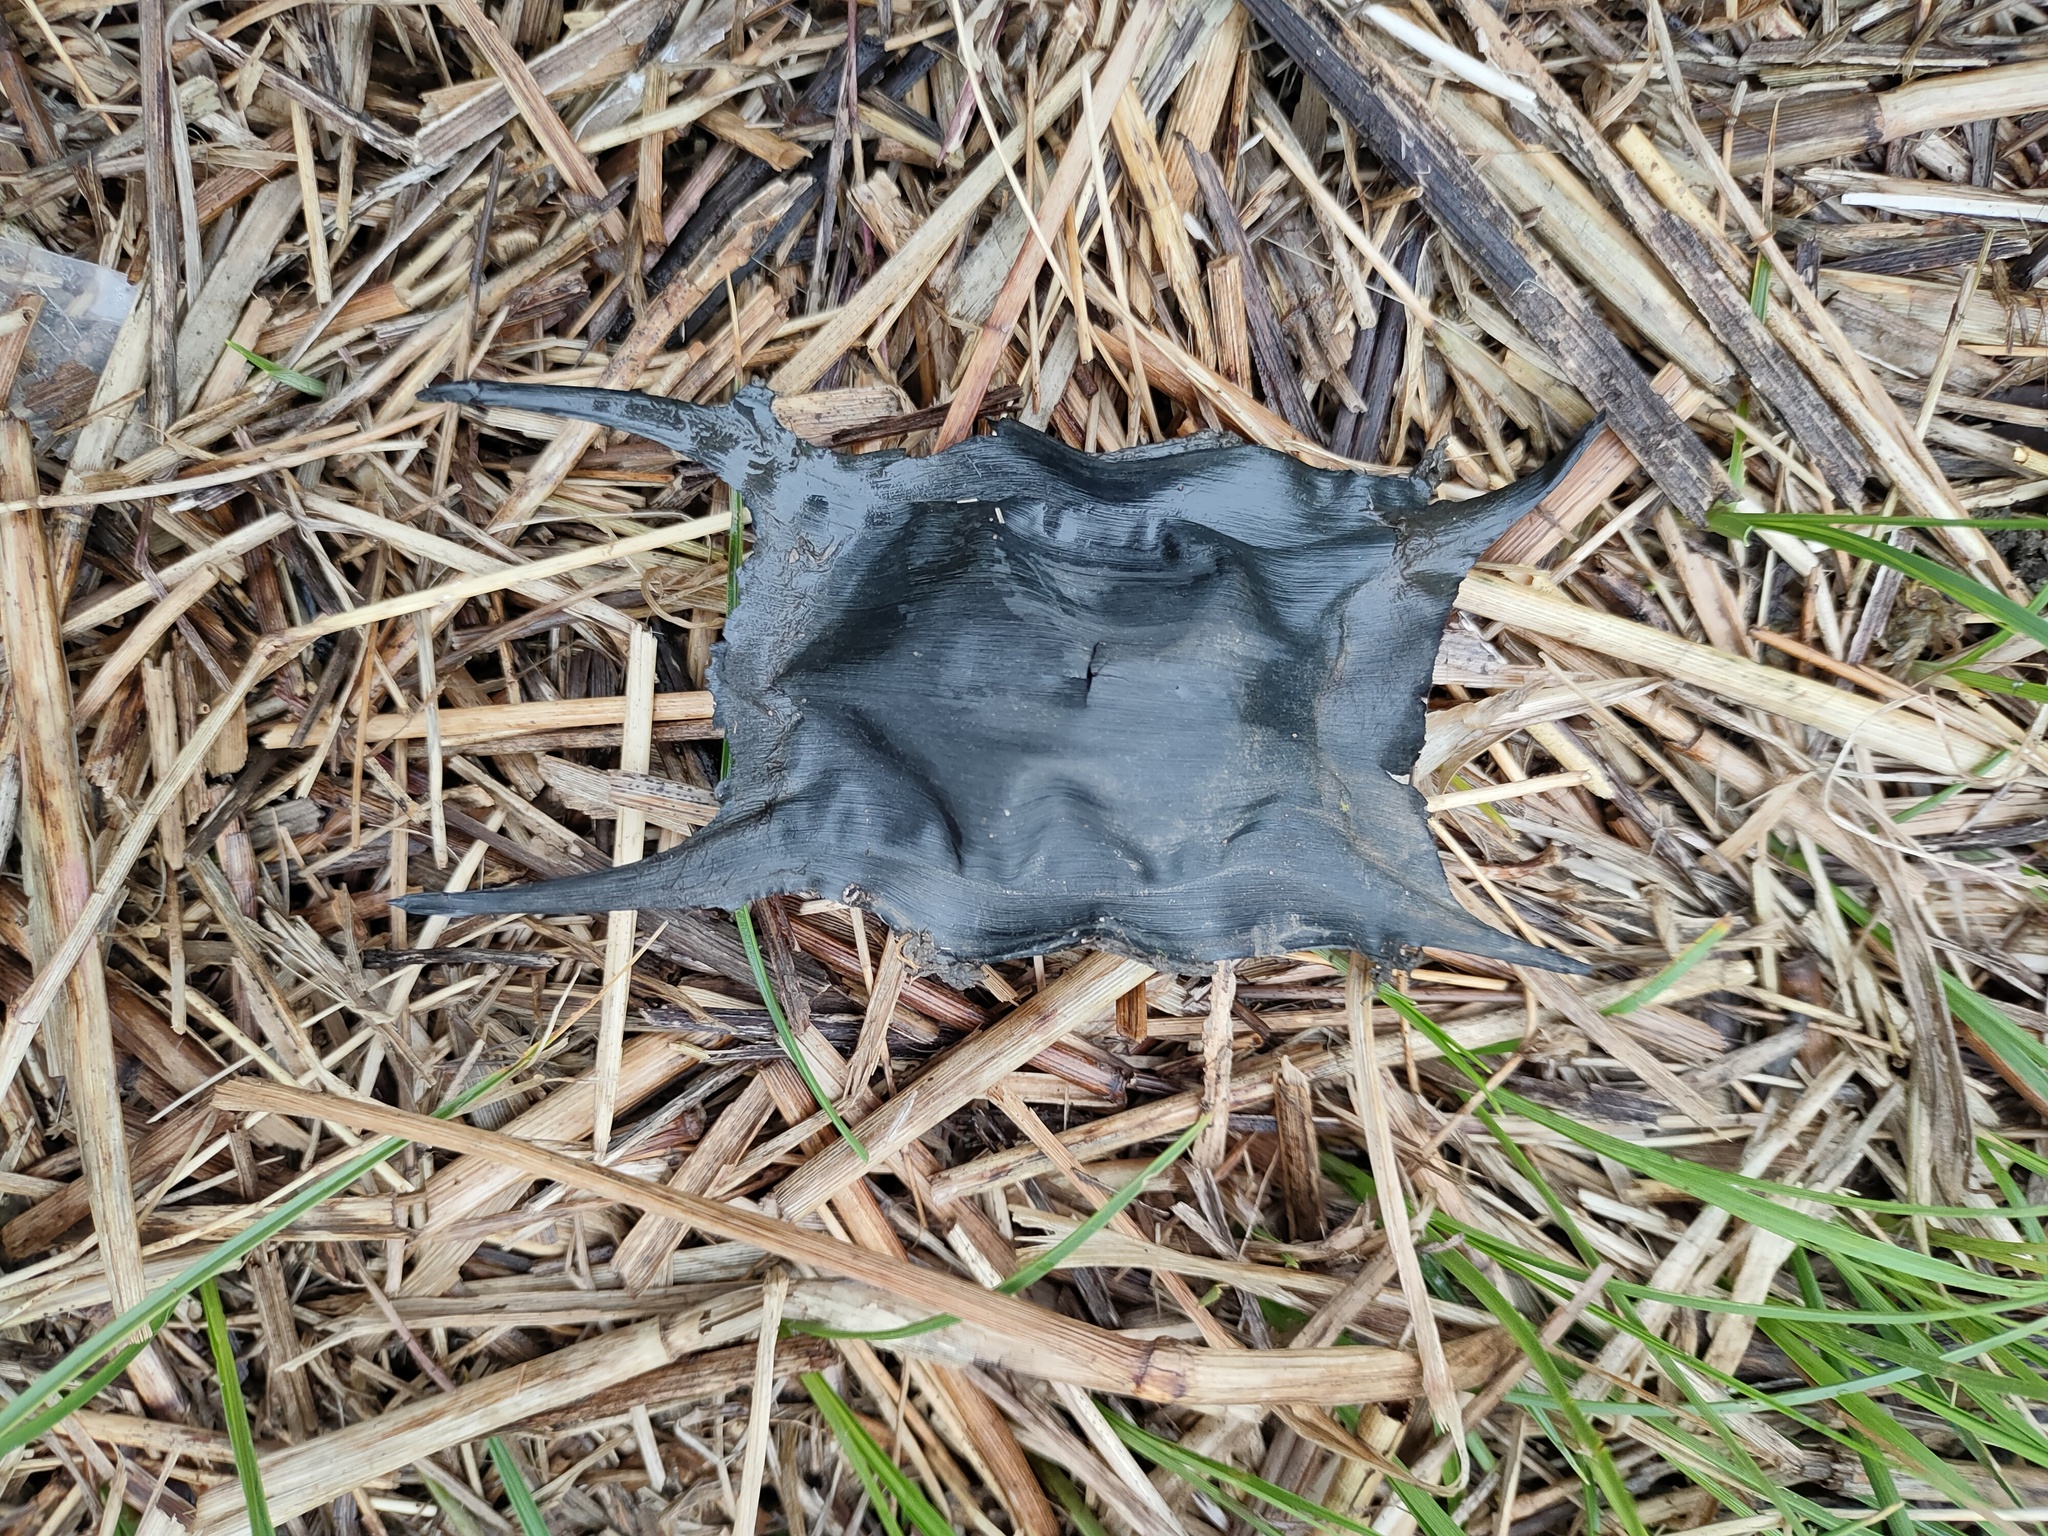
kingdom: Animalia
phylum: Chordata
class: Elasmobranchii
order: Rajiformes
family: Rajidae
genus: Raja
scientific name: Raja clavata
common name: Thornback ray
